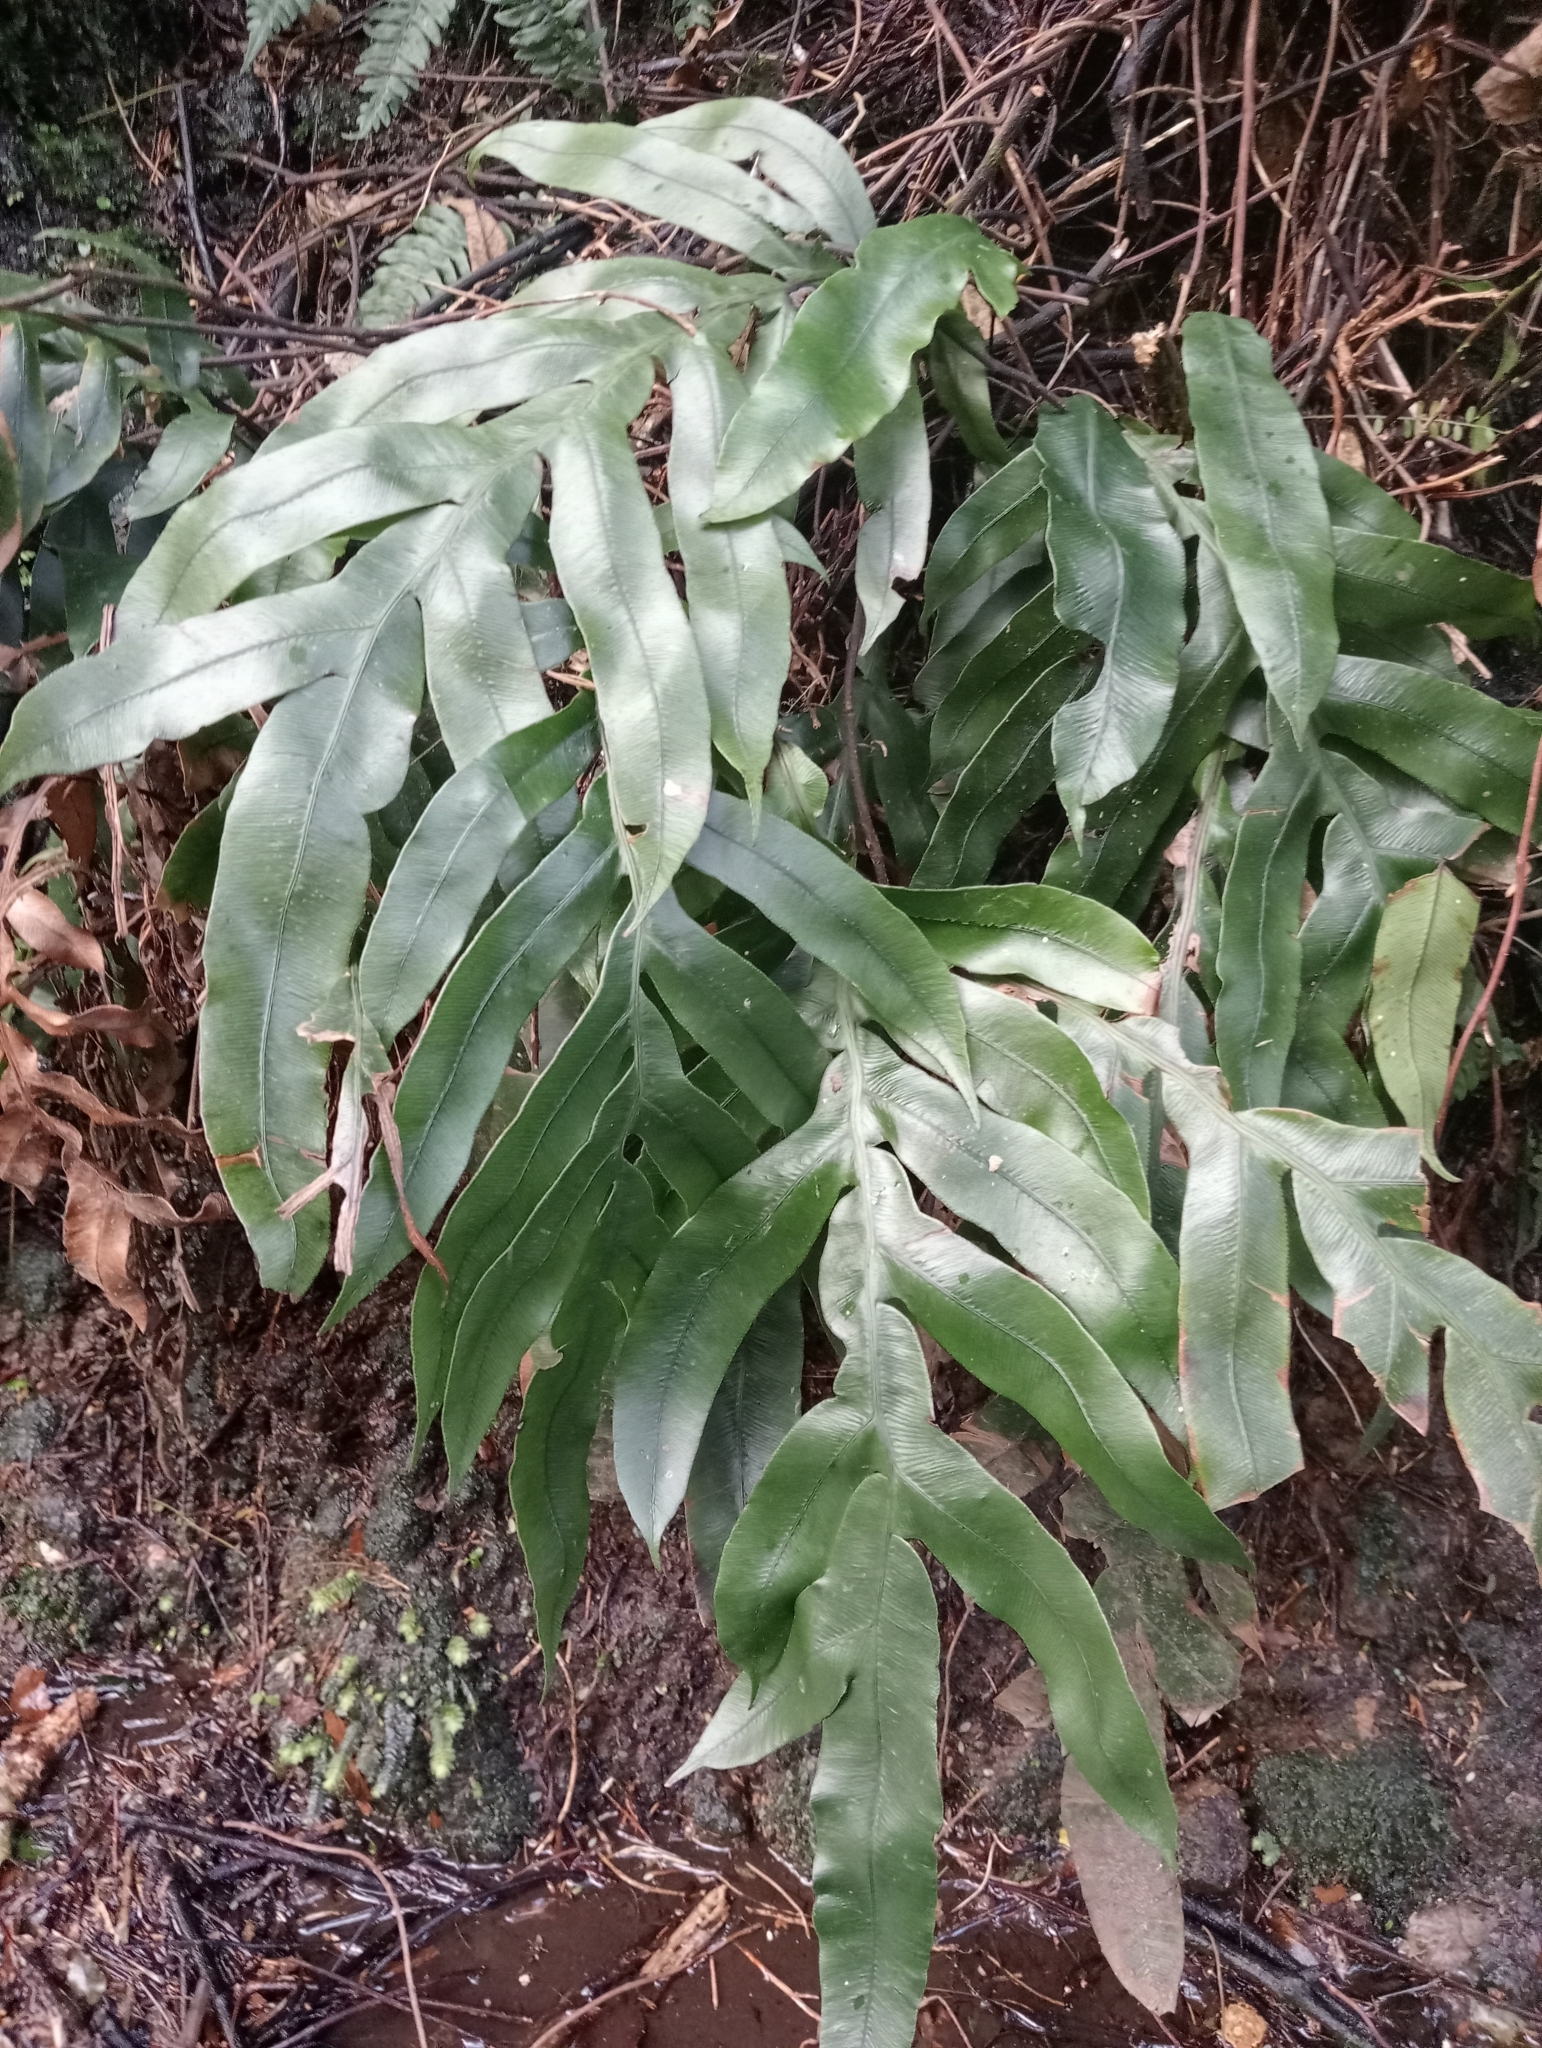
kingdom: Plantae
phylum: Tracheophyta
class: Polypodiopsida
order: Polypodiales
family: Blechnaceae
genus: Austroblechnum
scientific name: Austroblechnum colensoi
